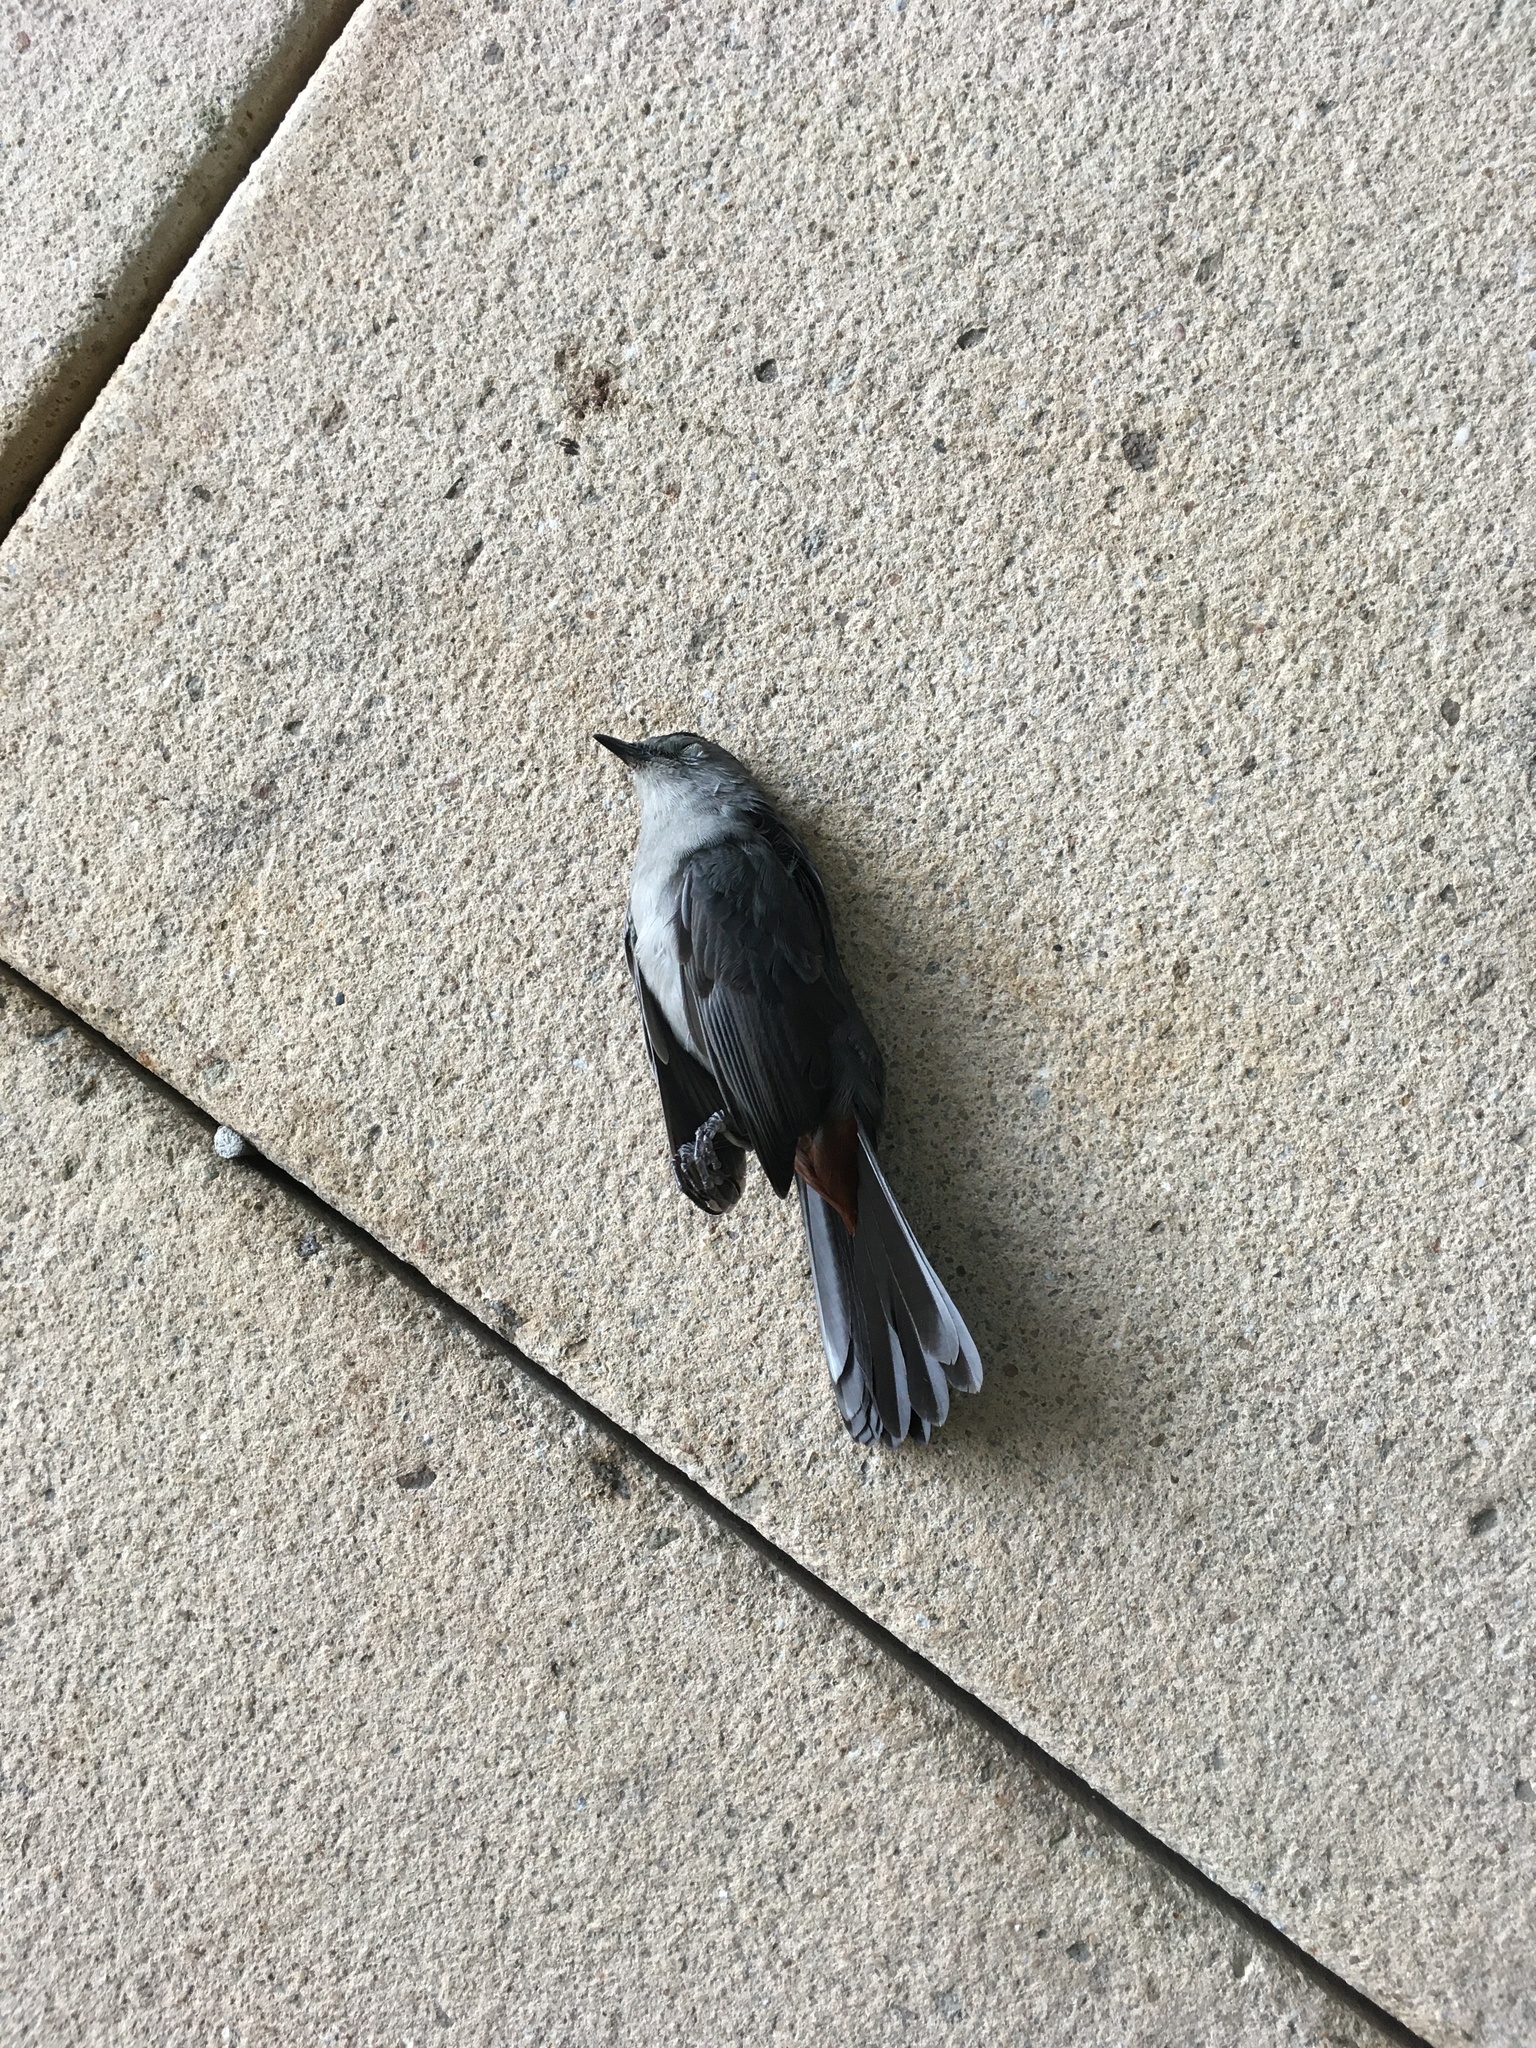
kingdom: Animalia
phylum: Chordata
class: Aves
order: Passeriformes
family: Mimidae
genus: Dumetella
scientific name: Dumetella carolinensis
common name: Gray catbird
